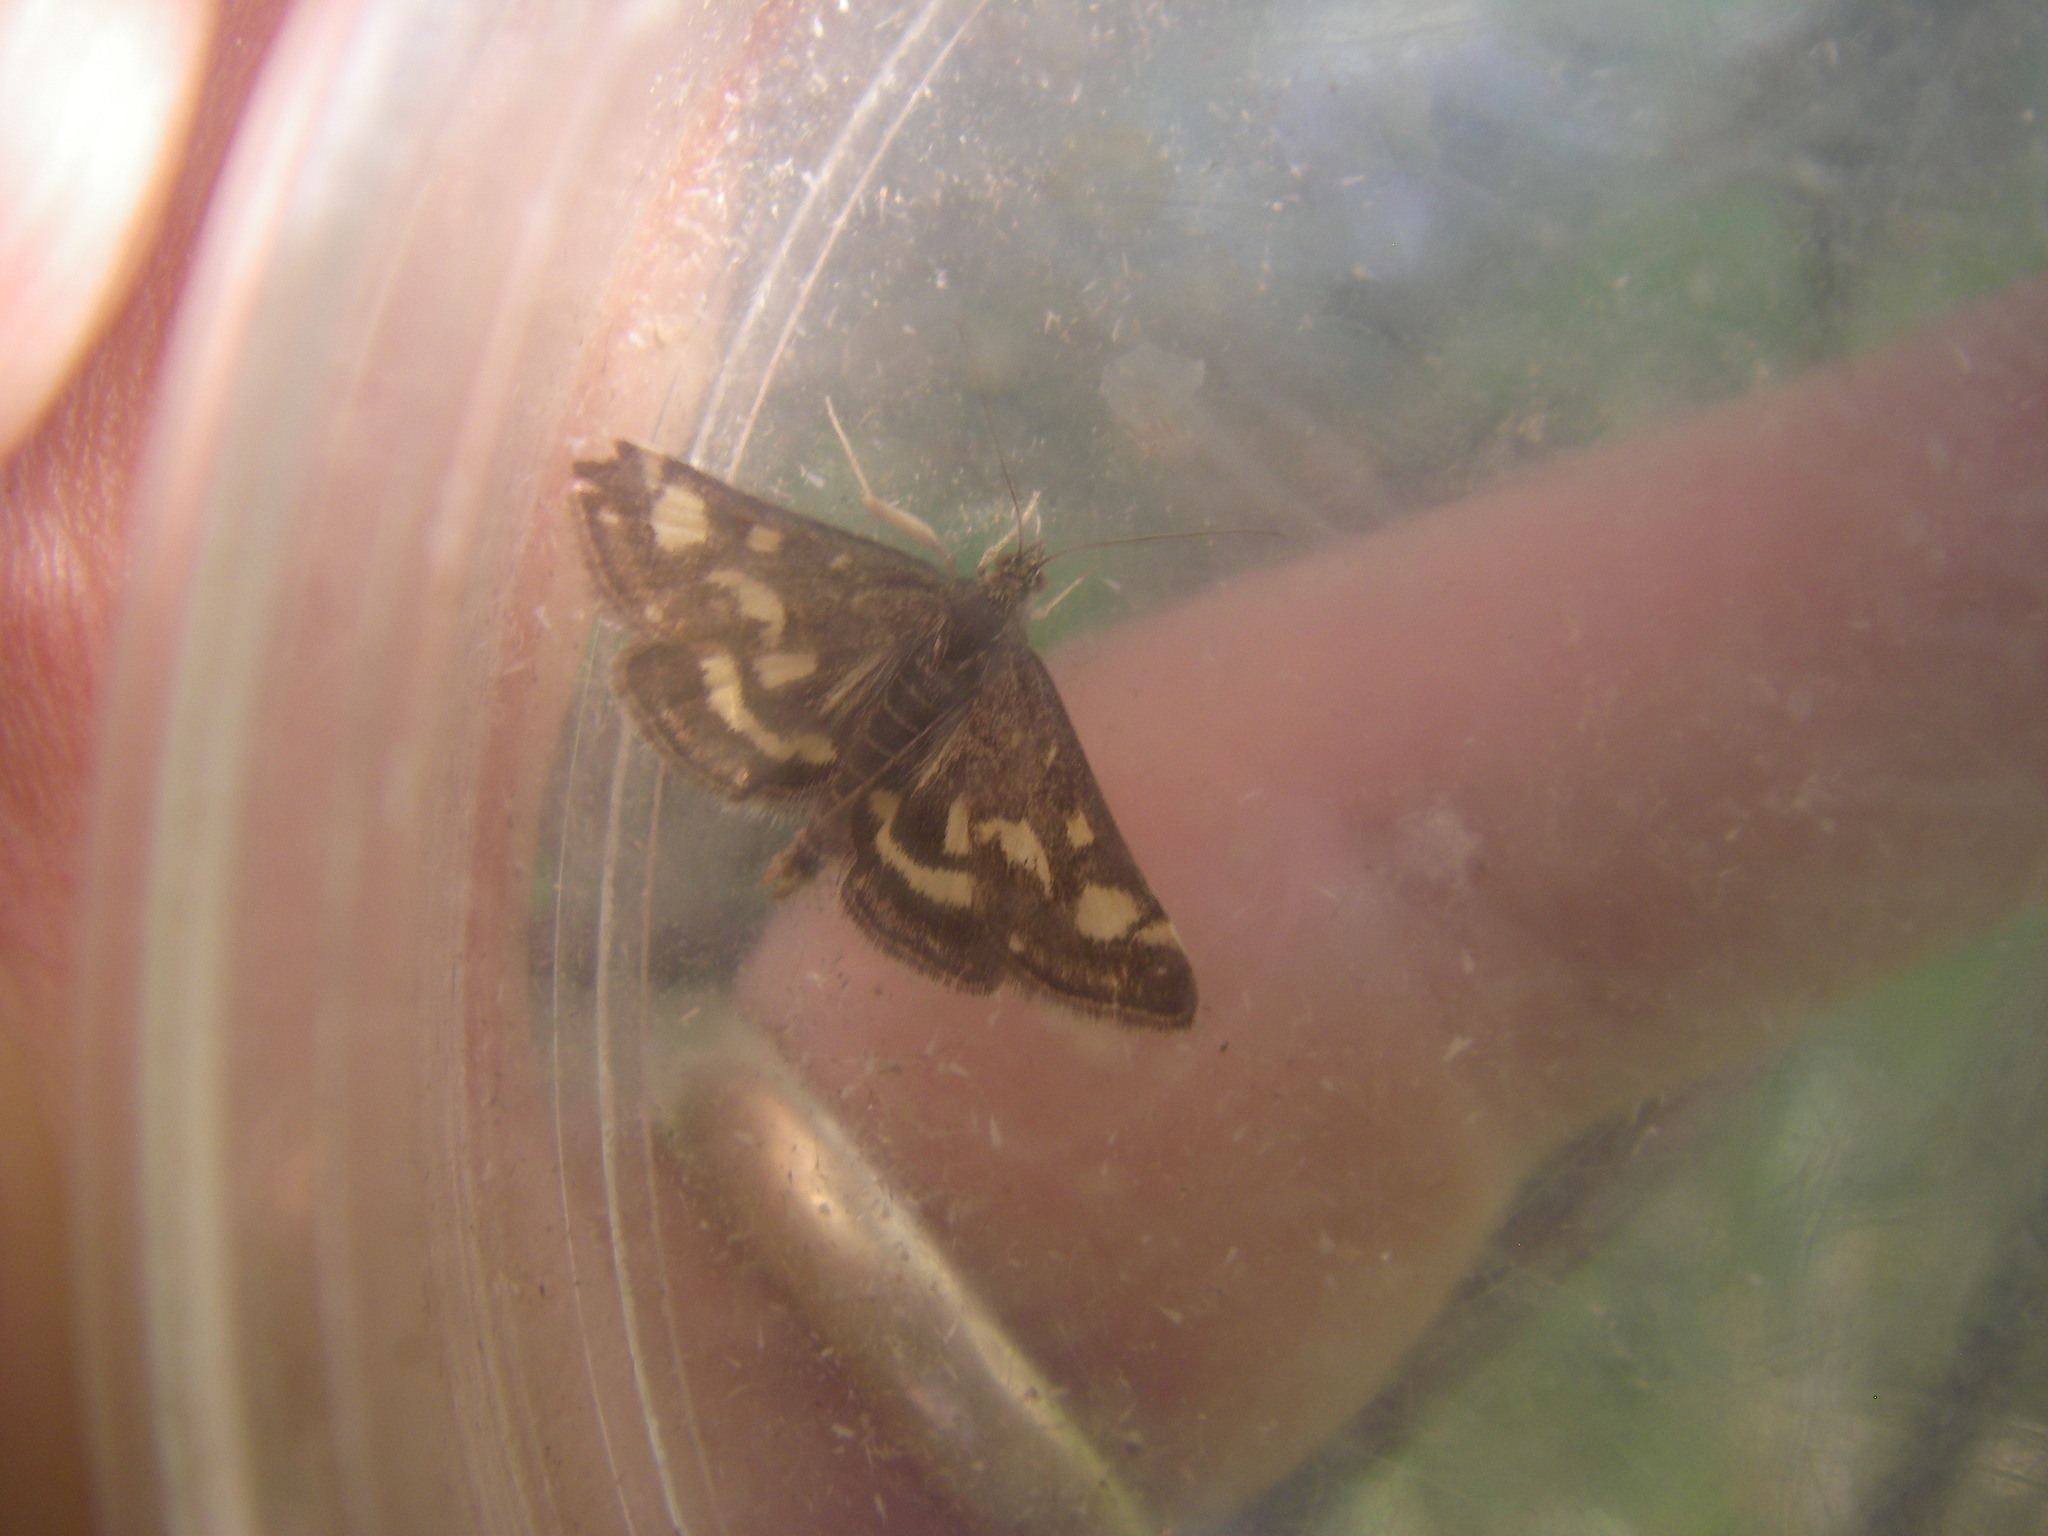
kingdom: Animalia
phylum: Arthropoda
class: Insecta
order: Lepidoptera
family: Crambidae
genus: Pyrausta
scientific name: Pyrausta purpuralis
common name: Common purple & gold
